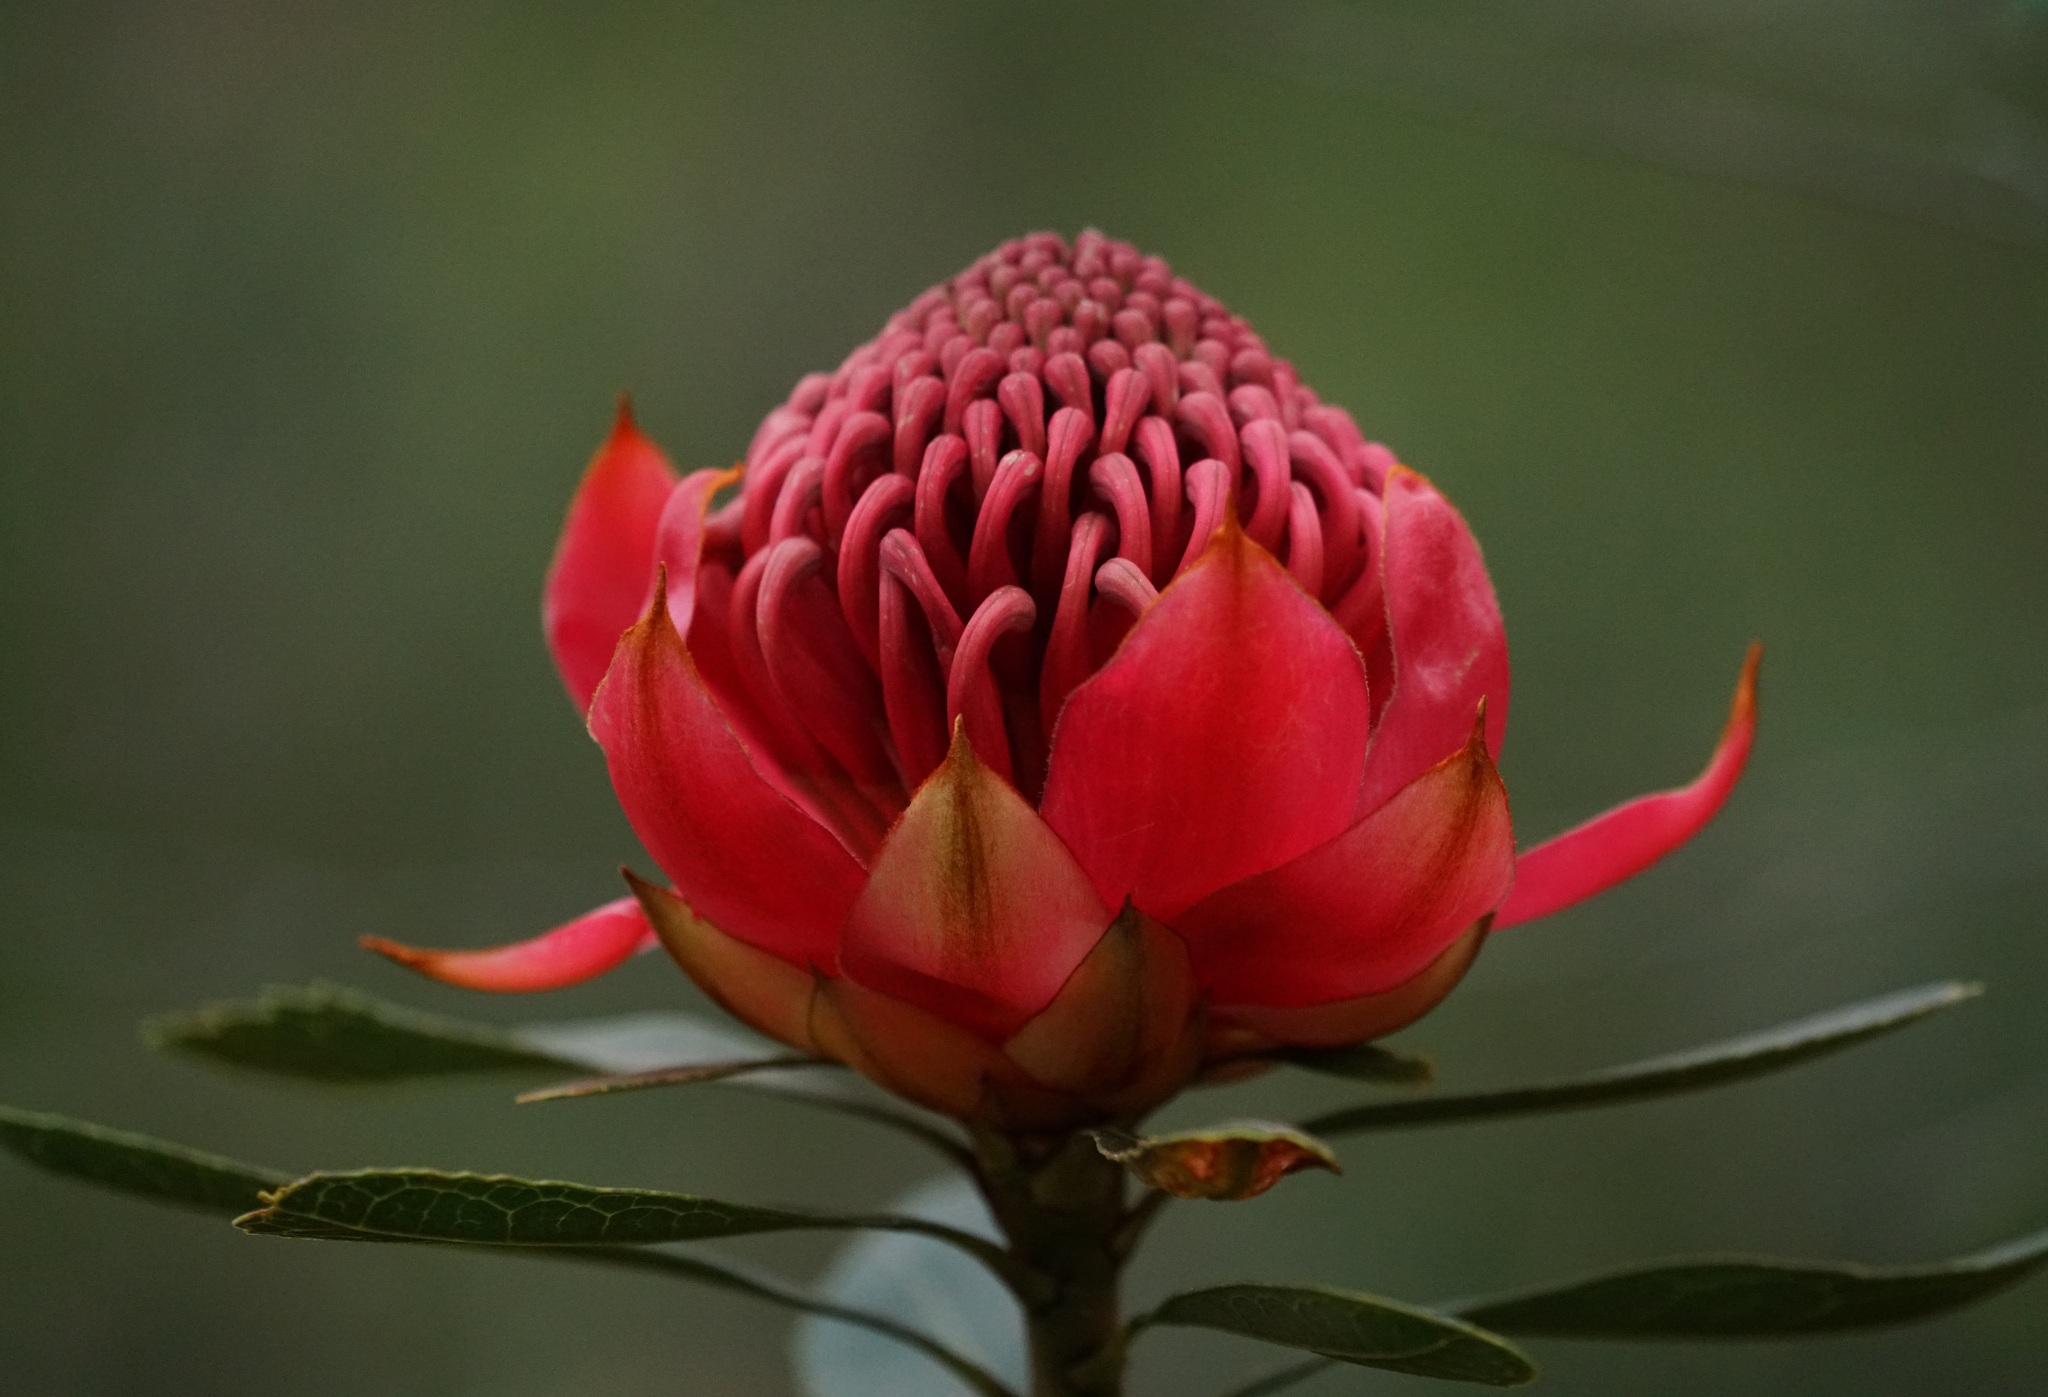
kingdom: Plantae
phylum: Tracheophyta
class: Magnoliopsida
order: Proteales
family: Proteaceae
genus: Telopea
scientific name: Telopea speciosissima
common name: New south wales waratah
